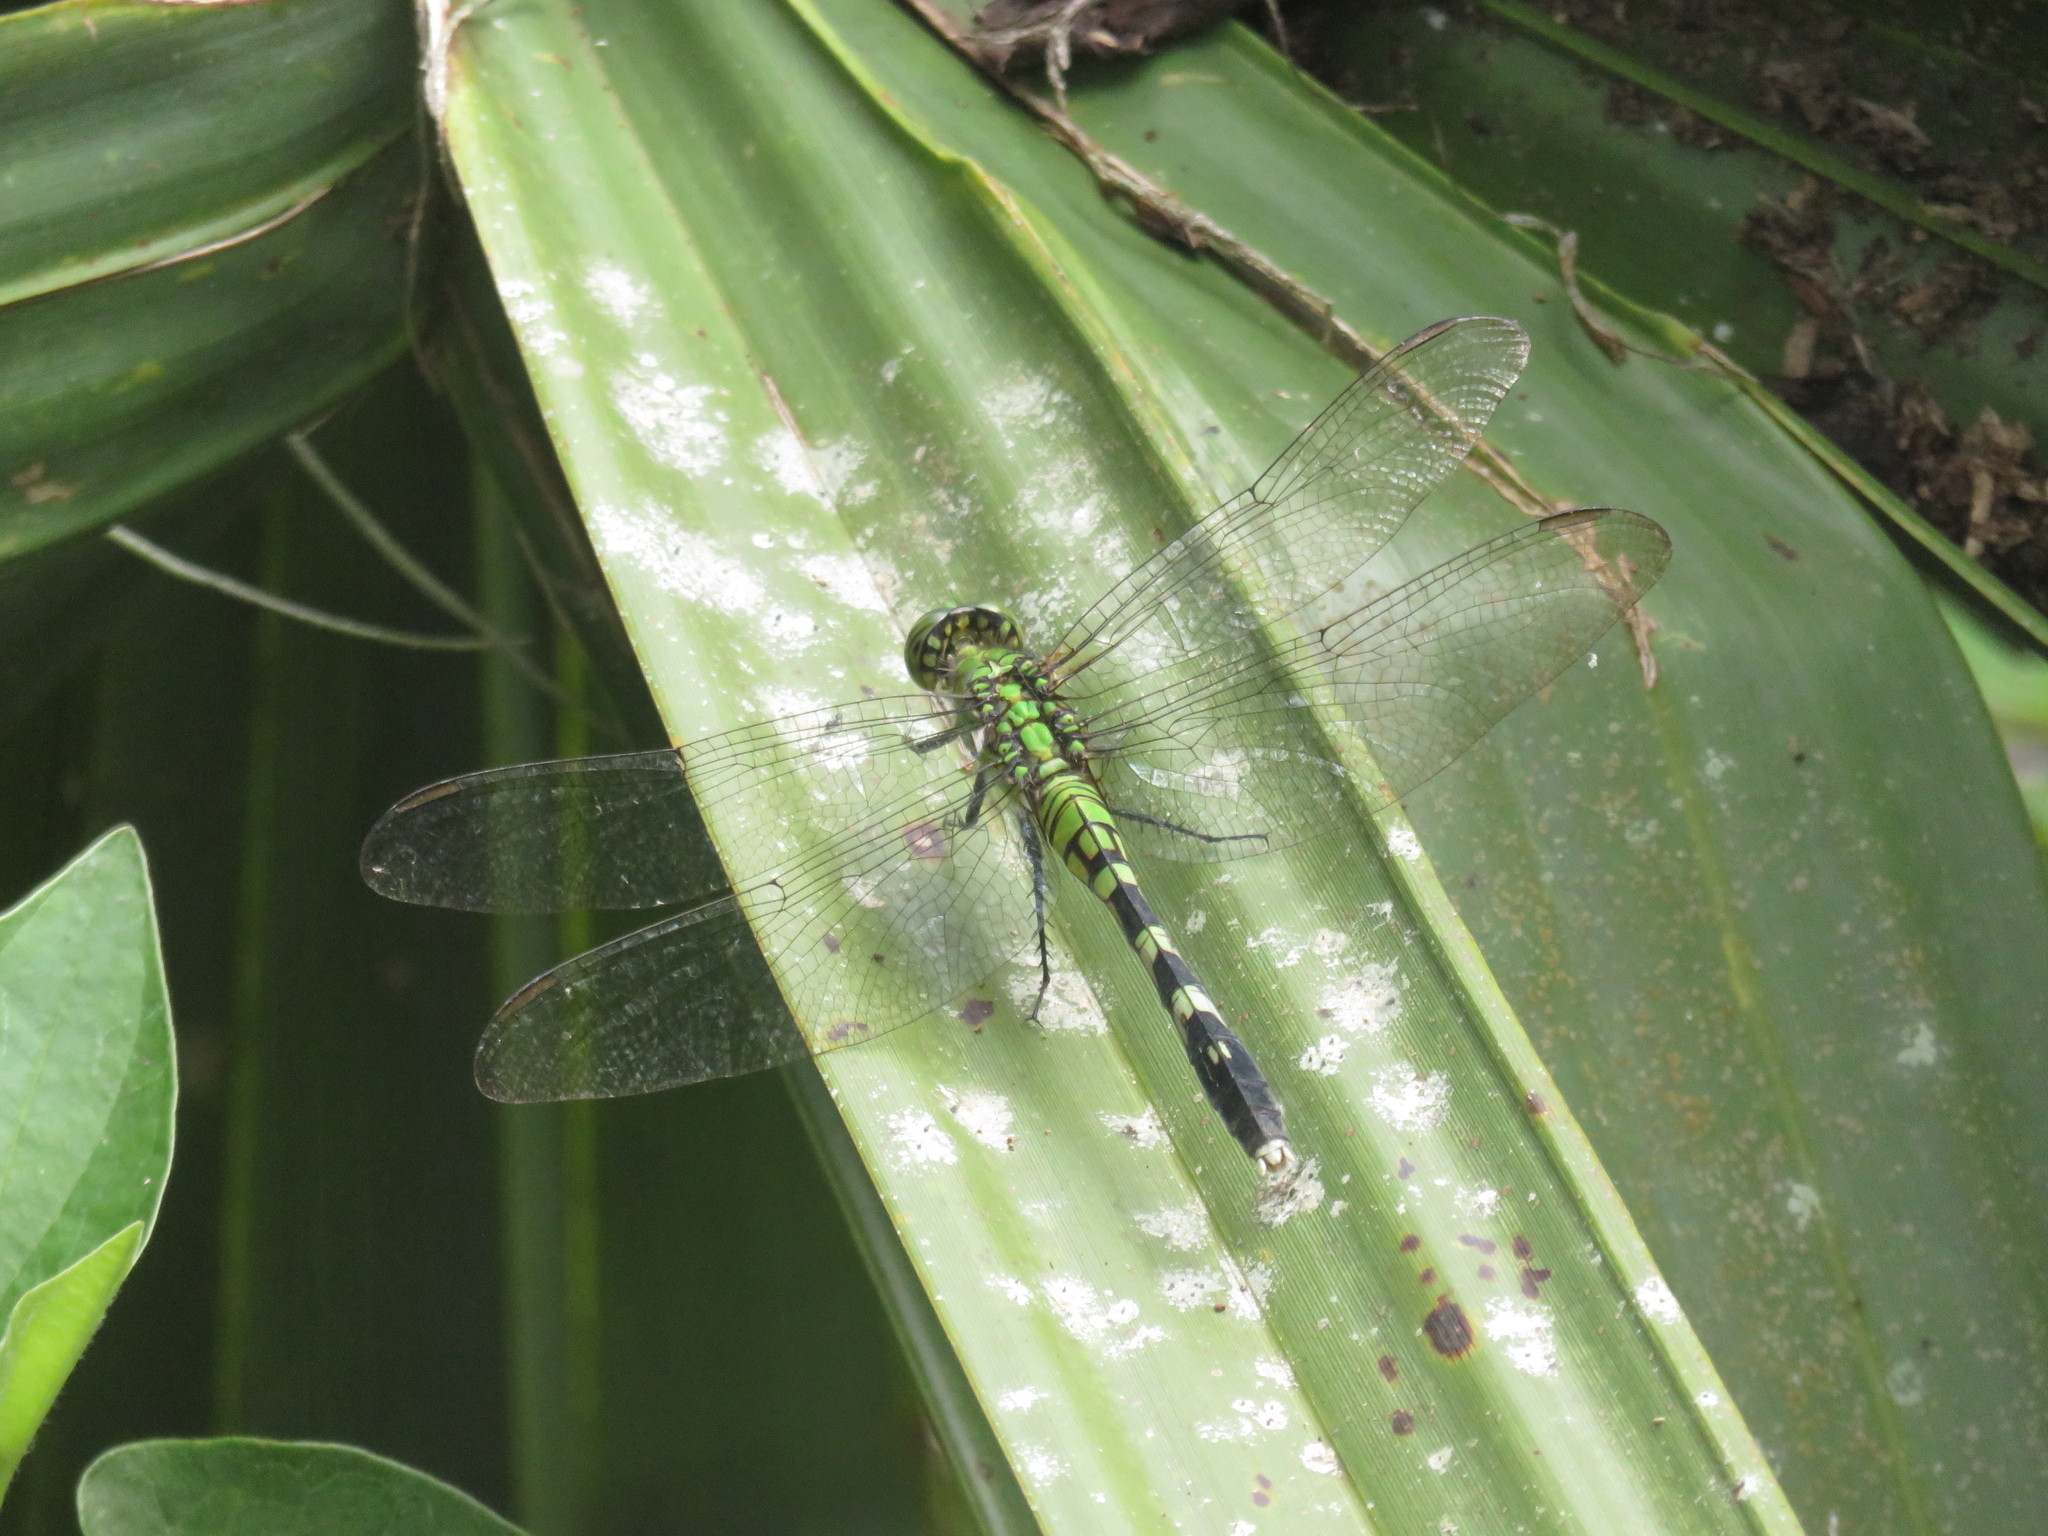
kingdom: Animalia
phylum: Arthropoda
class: Insecta
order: Odonata
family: Libellulidae
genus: Erythemis
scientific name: Erythemis simplicicollis
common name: Eastern pondhawk
